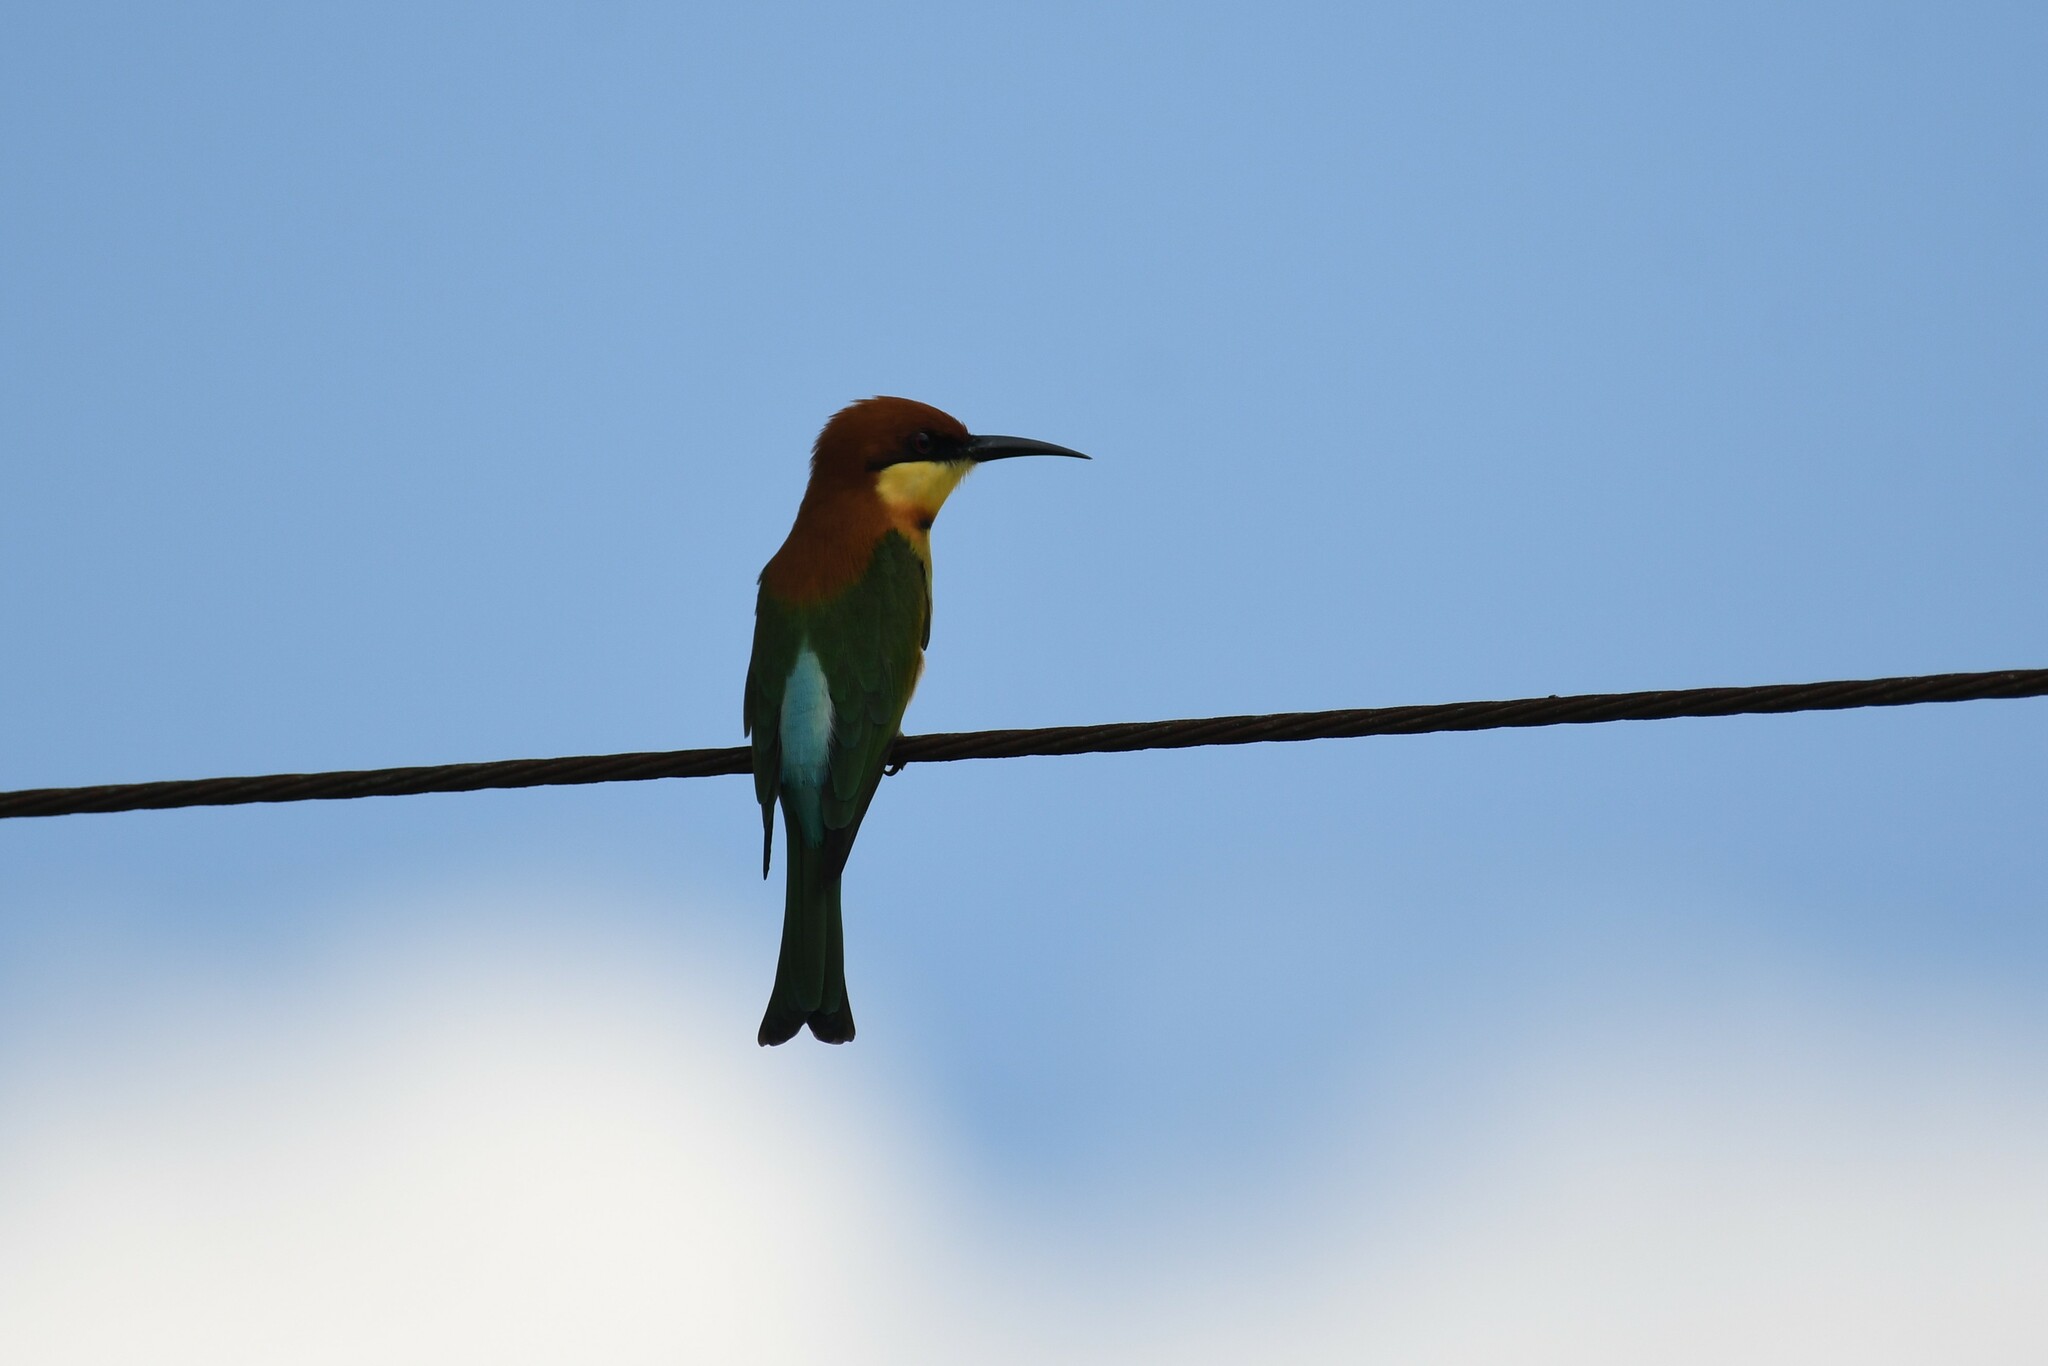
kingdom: Animalia
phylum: Chordata
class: Aves
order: Coraciiformes
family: Meropidae
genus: Merops
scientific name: Merops leschenaulti
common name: Chestnut-headed bee-eater
